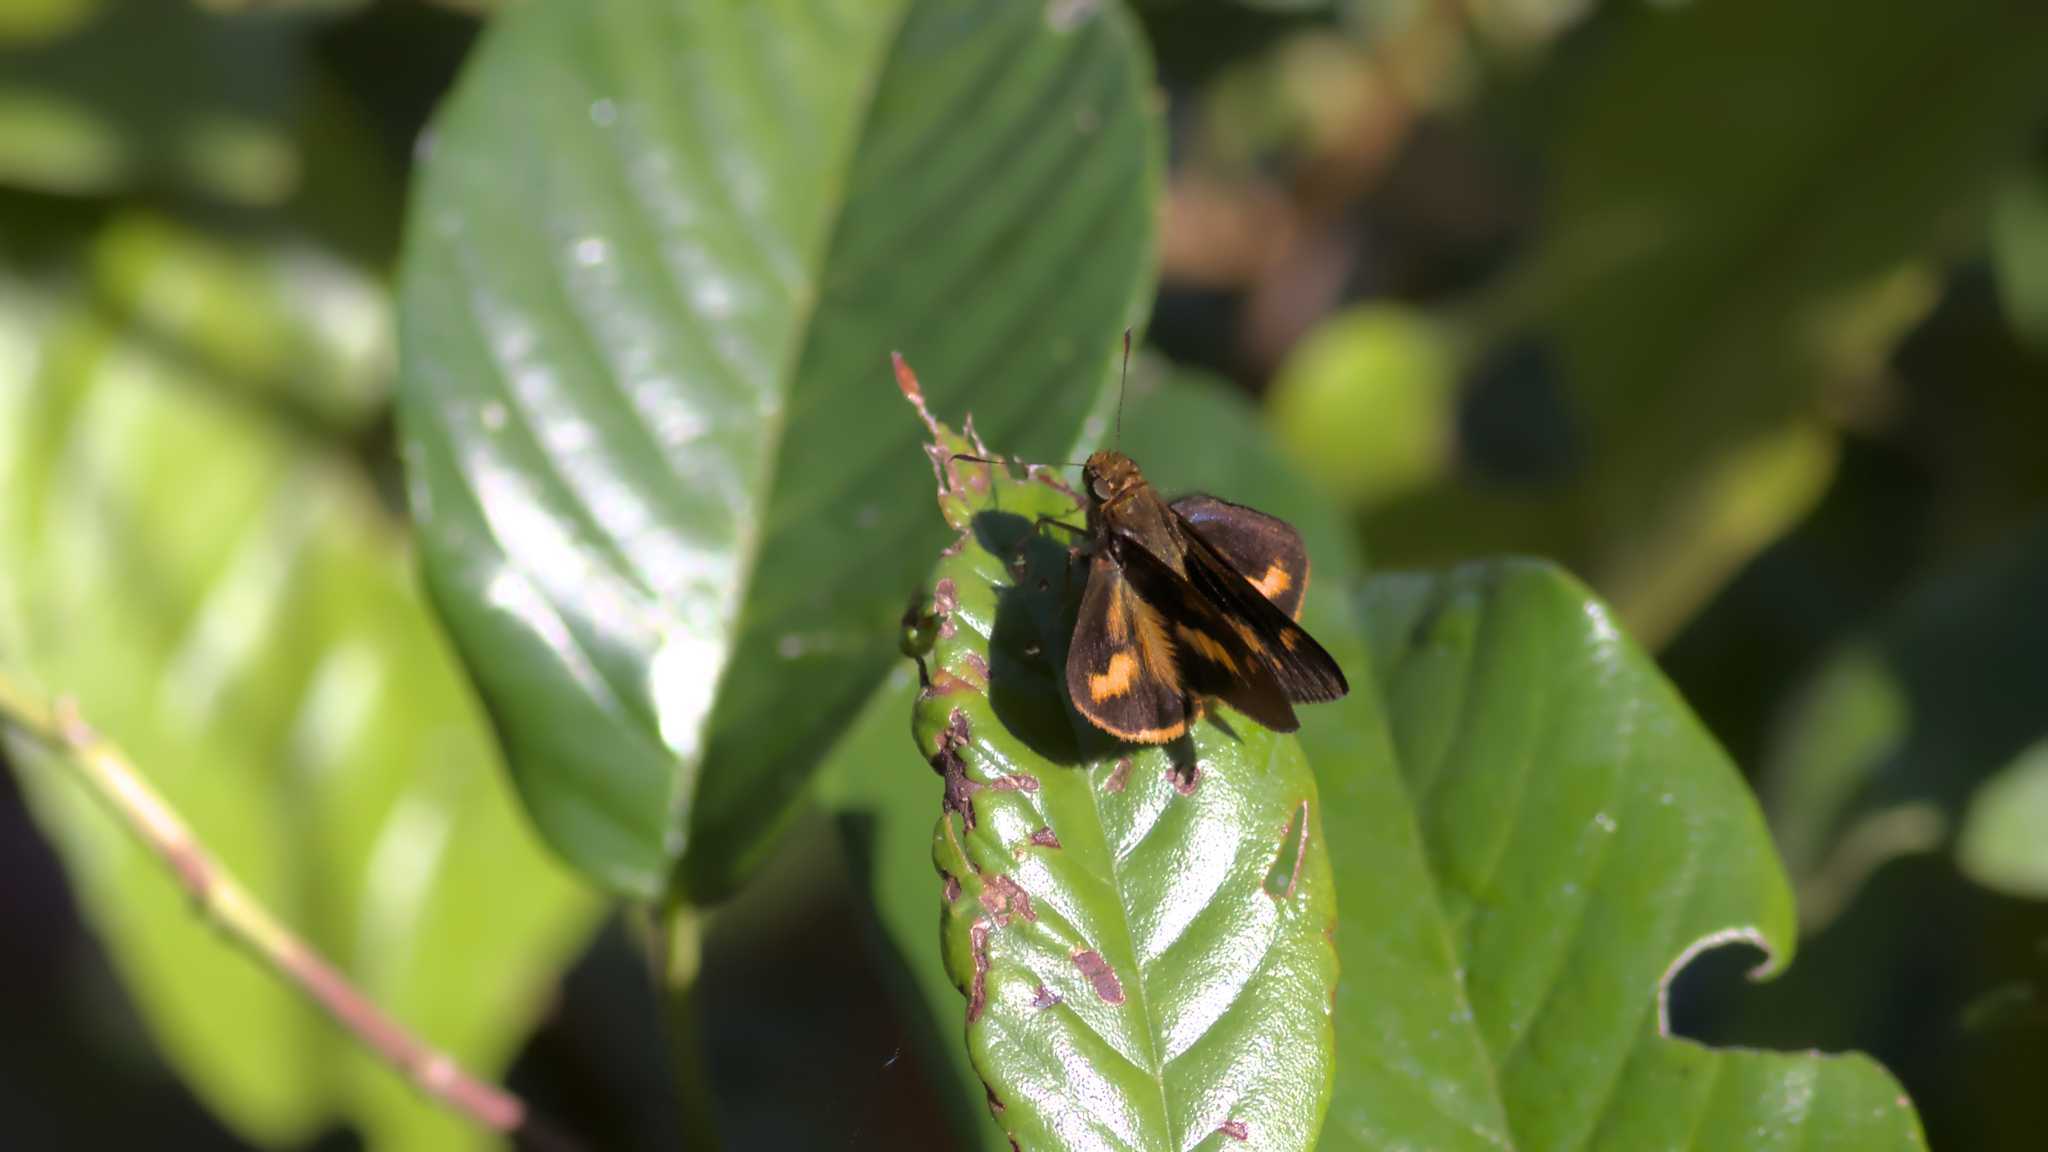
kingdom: Animalia
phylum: Arthropoda
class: Insecta
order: Lepidoptera
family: Hesperiidae
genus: Sabera
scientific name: Sabera dobboe
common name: Yellow-streaked swift
